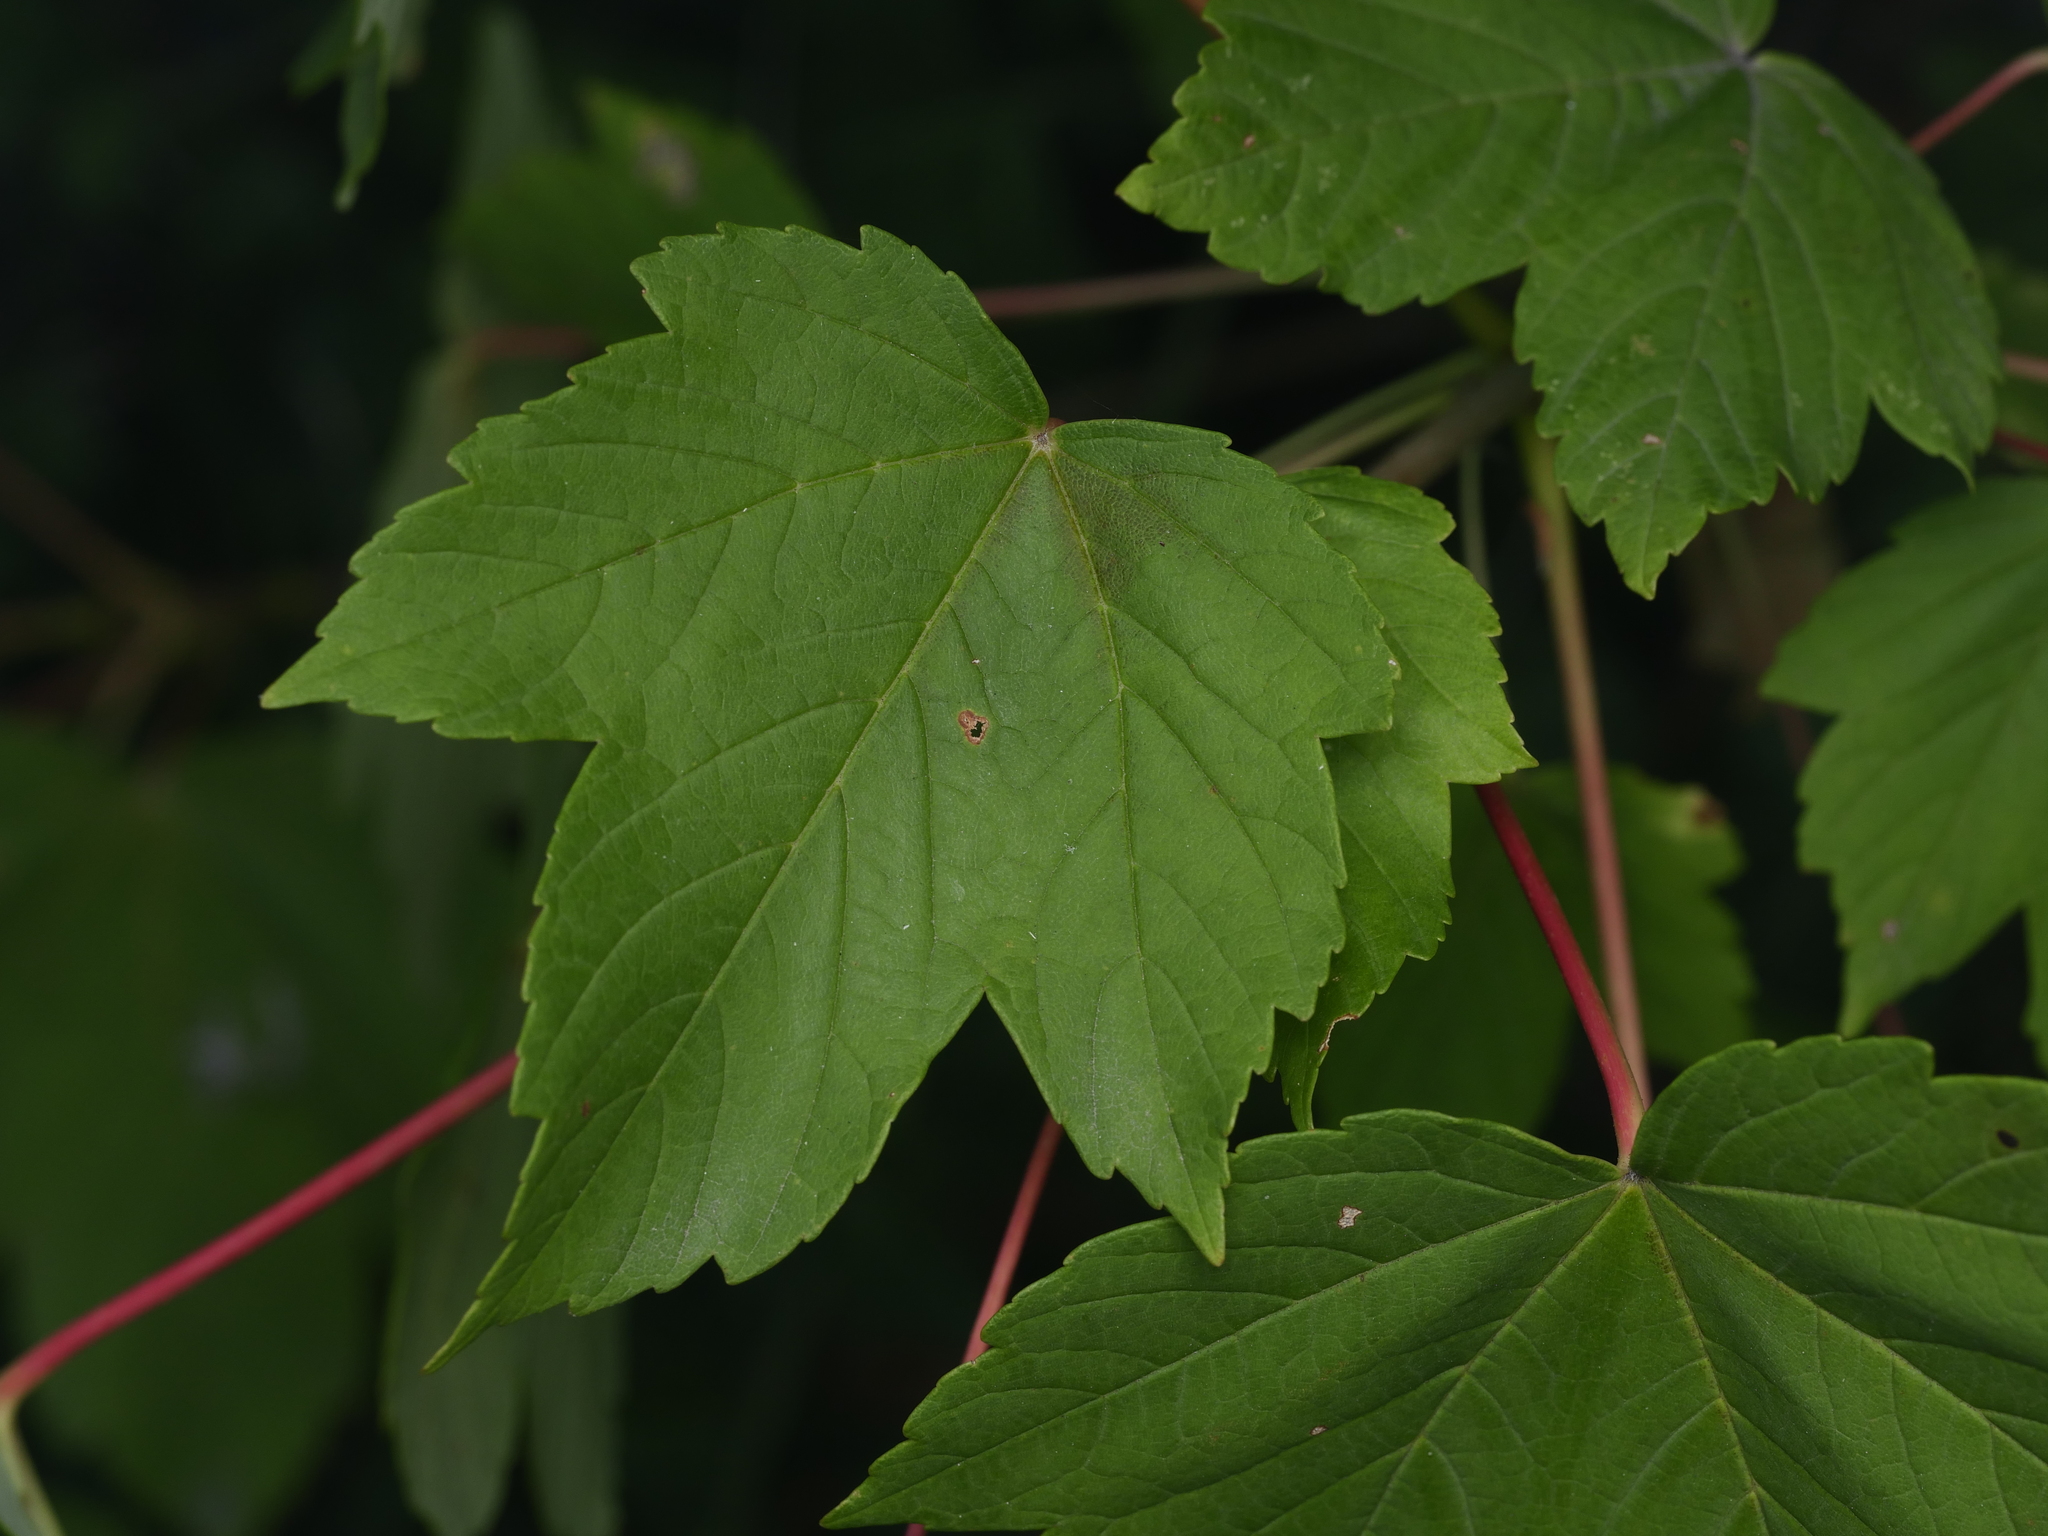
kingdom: Plantae
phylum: Tracheophyta
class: Magnoliopsida
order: Sapindales
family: Sapindaceae
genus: Acer
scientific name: Acer pseudoplatanus
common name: Sycamore
